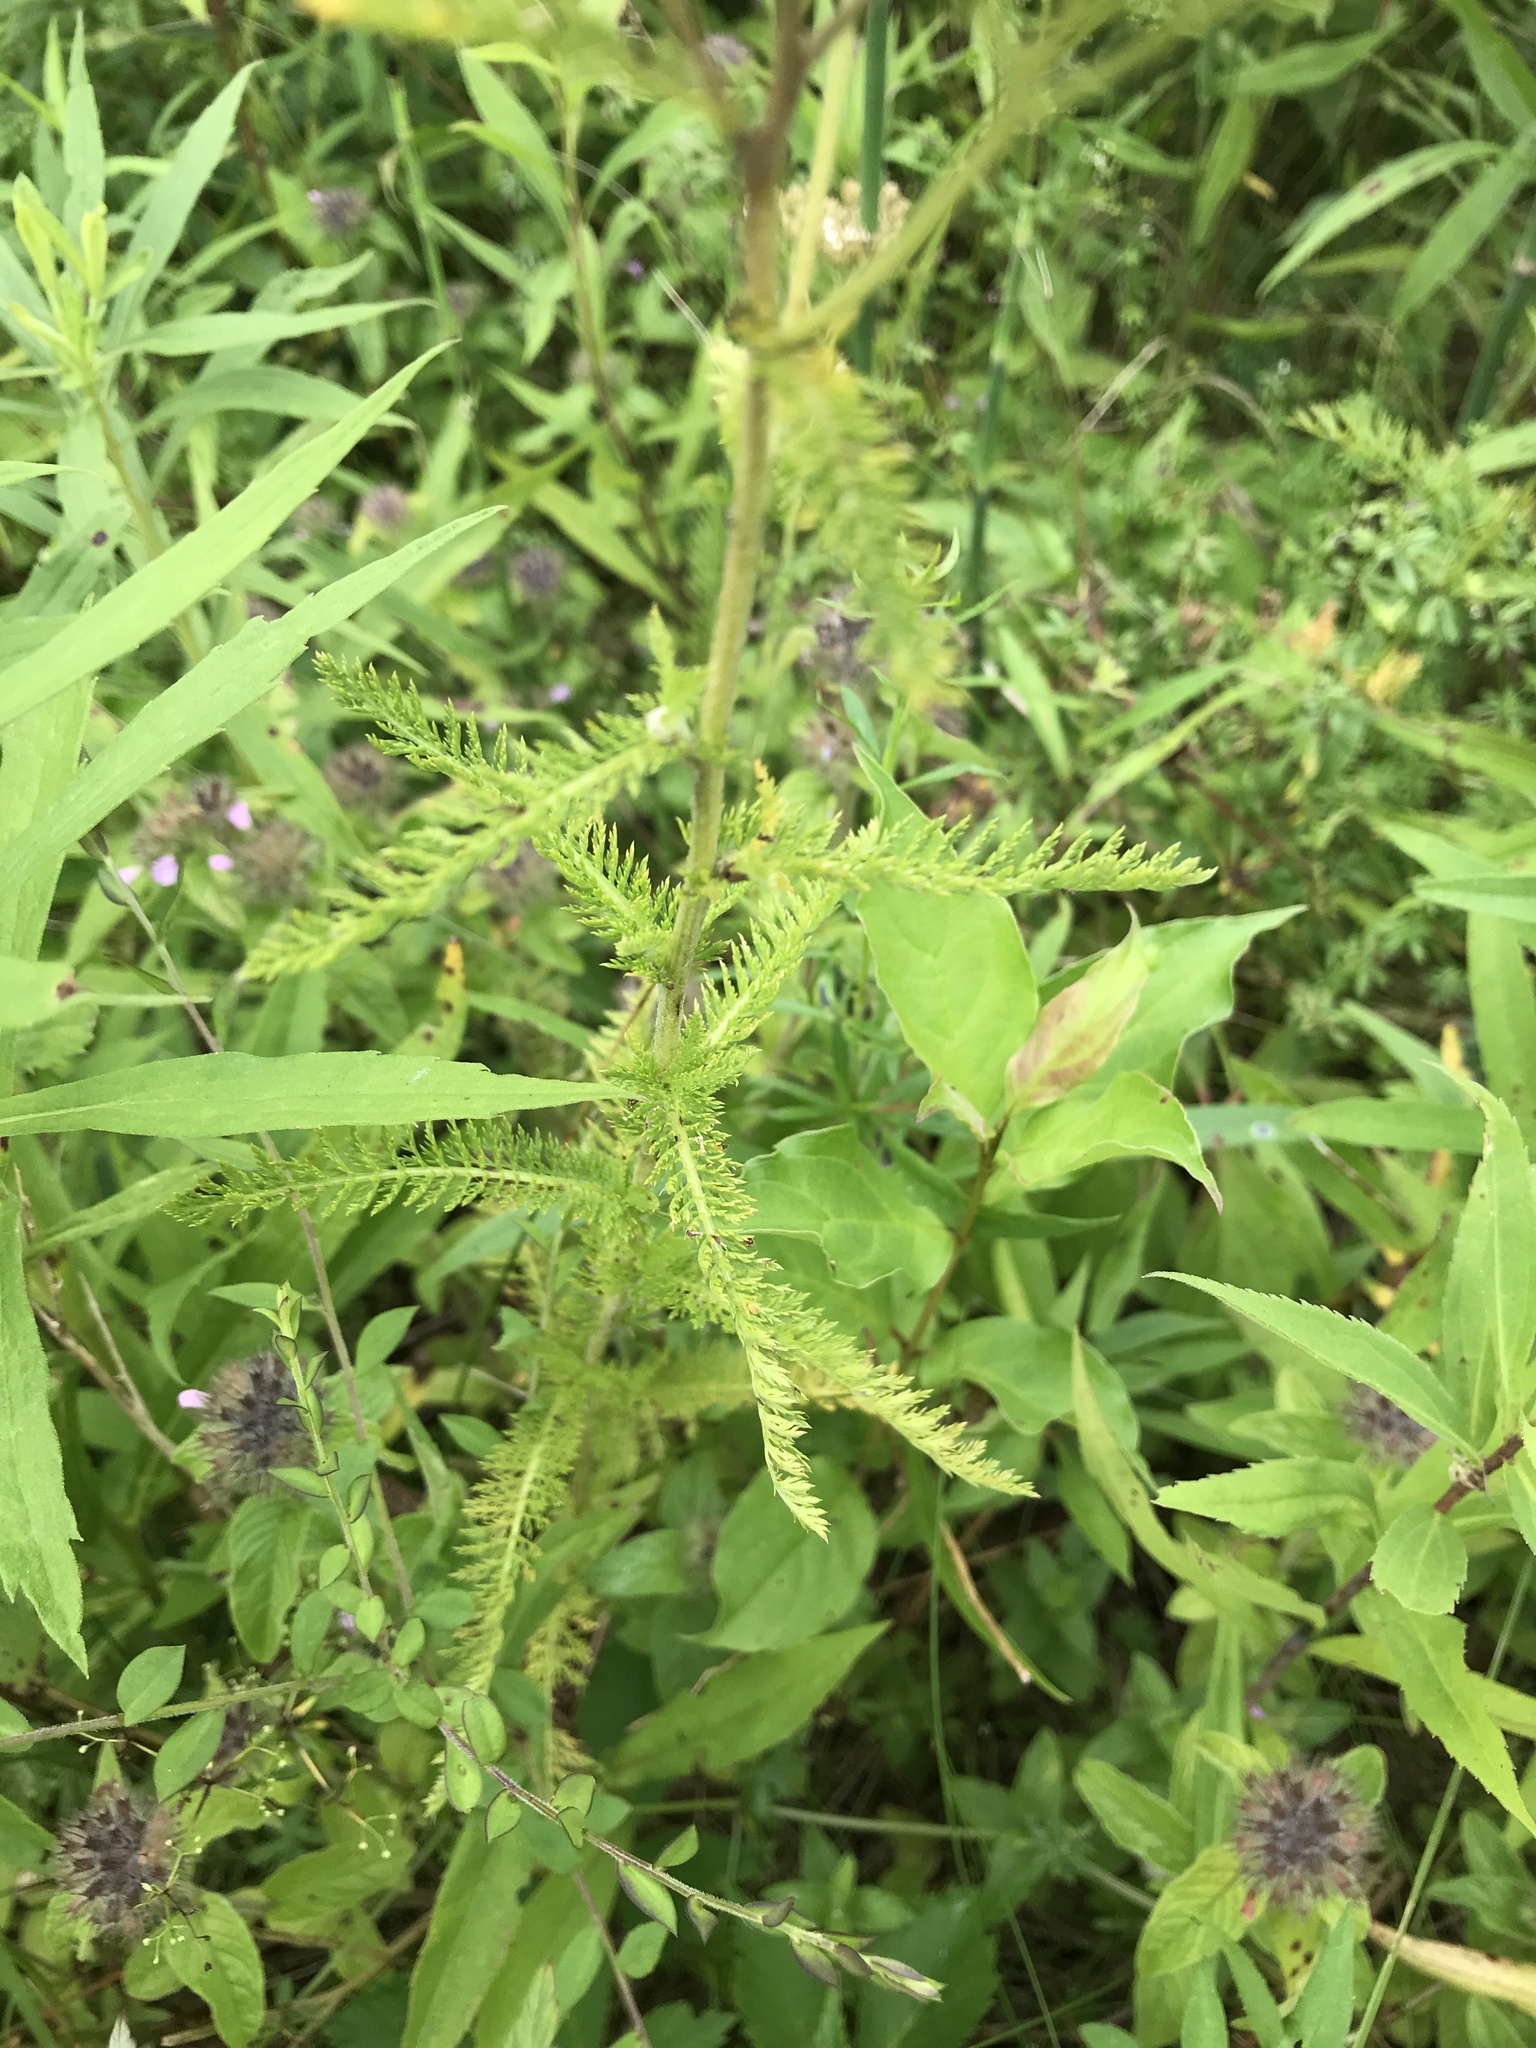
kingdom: Plantae
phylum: Tracheophyta
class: Magnoliopsida
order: Asterales
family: Asteraceae
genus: Achillea
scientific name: Achillea millefolium
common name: Yarrow
